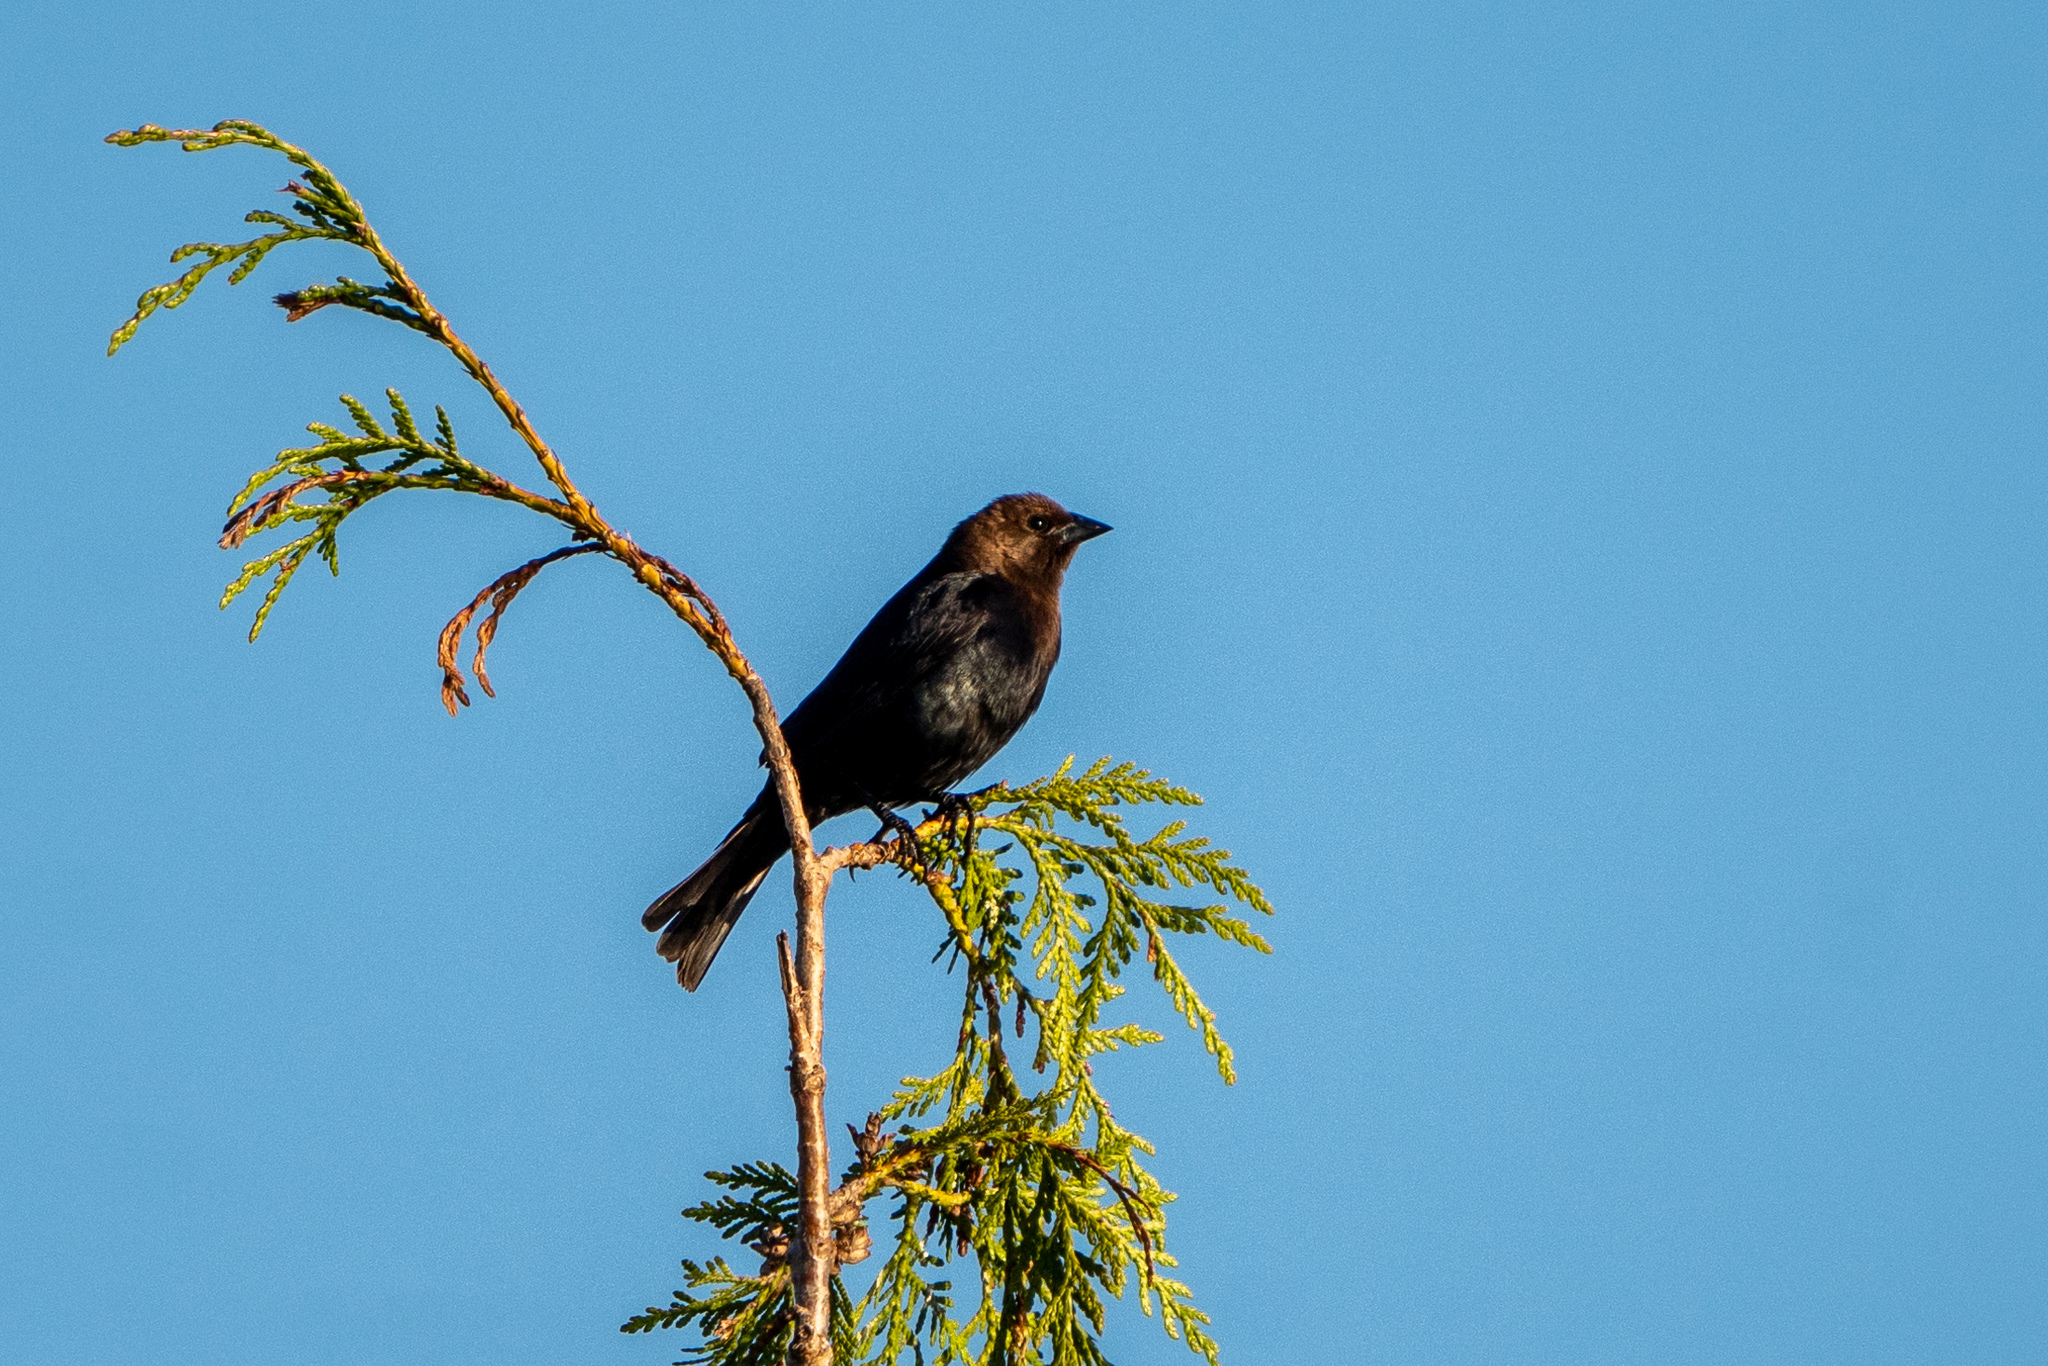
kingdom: Animalia
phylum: Chordata
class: Aves
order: Passeriformes
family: Icteridae
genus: Molothrus
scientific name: Molothrus ater
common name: Brown-headed cowbird
